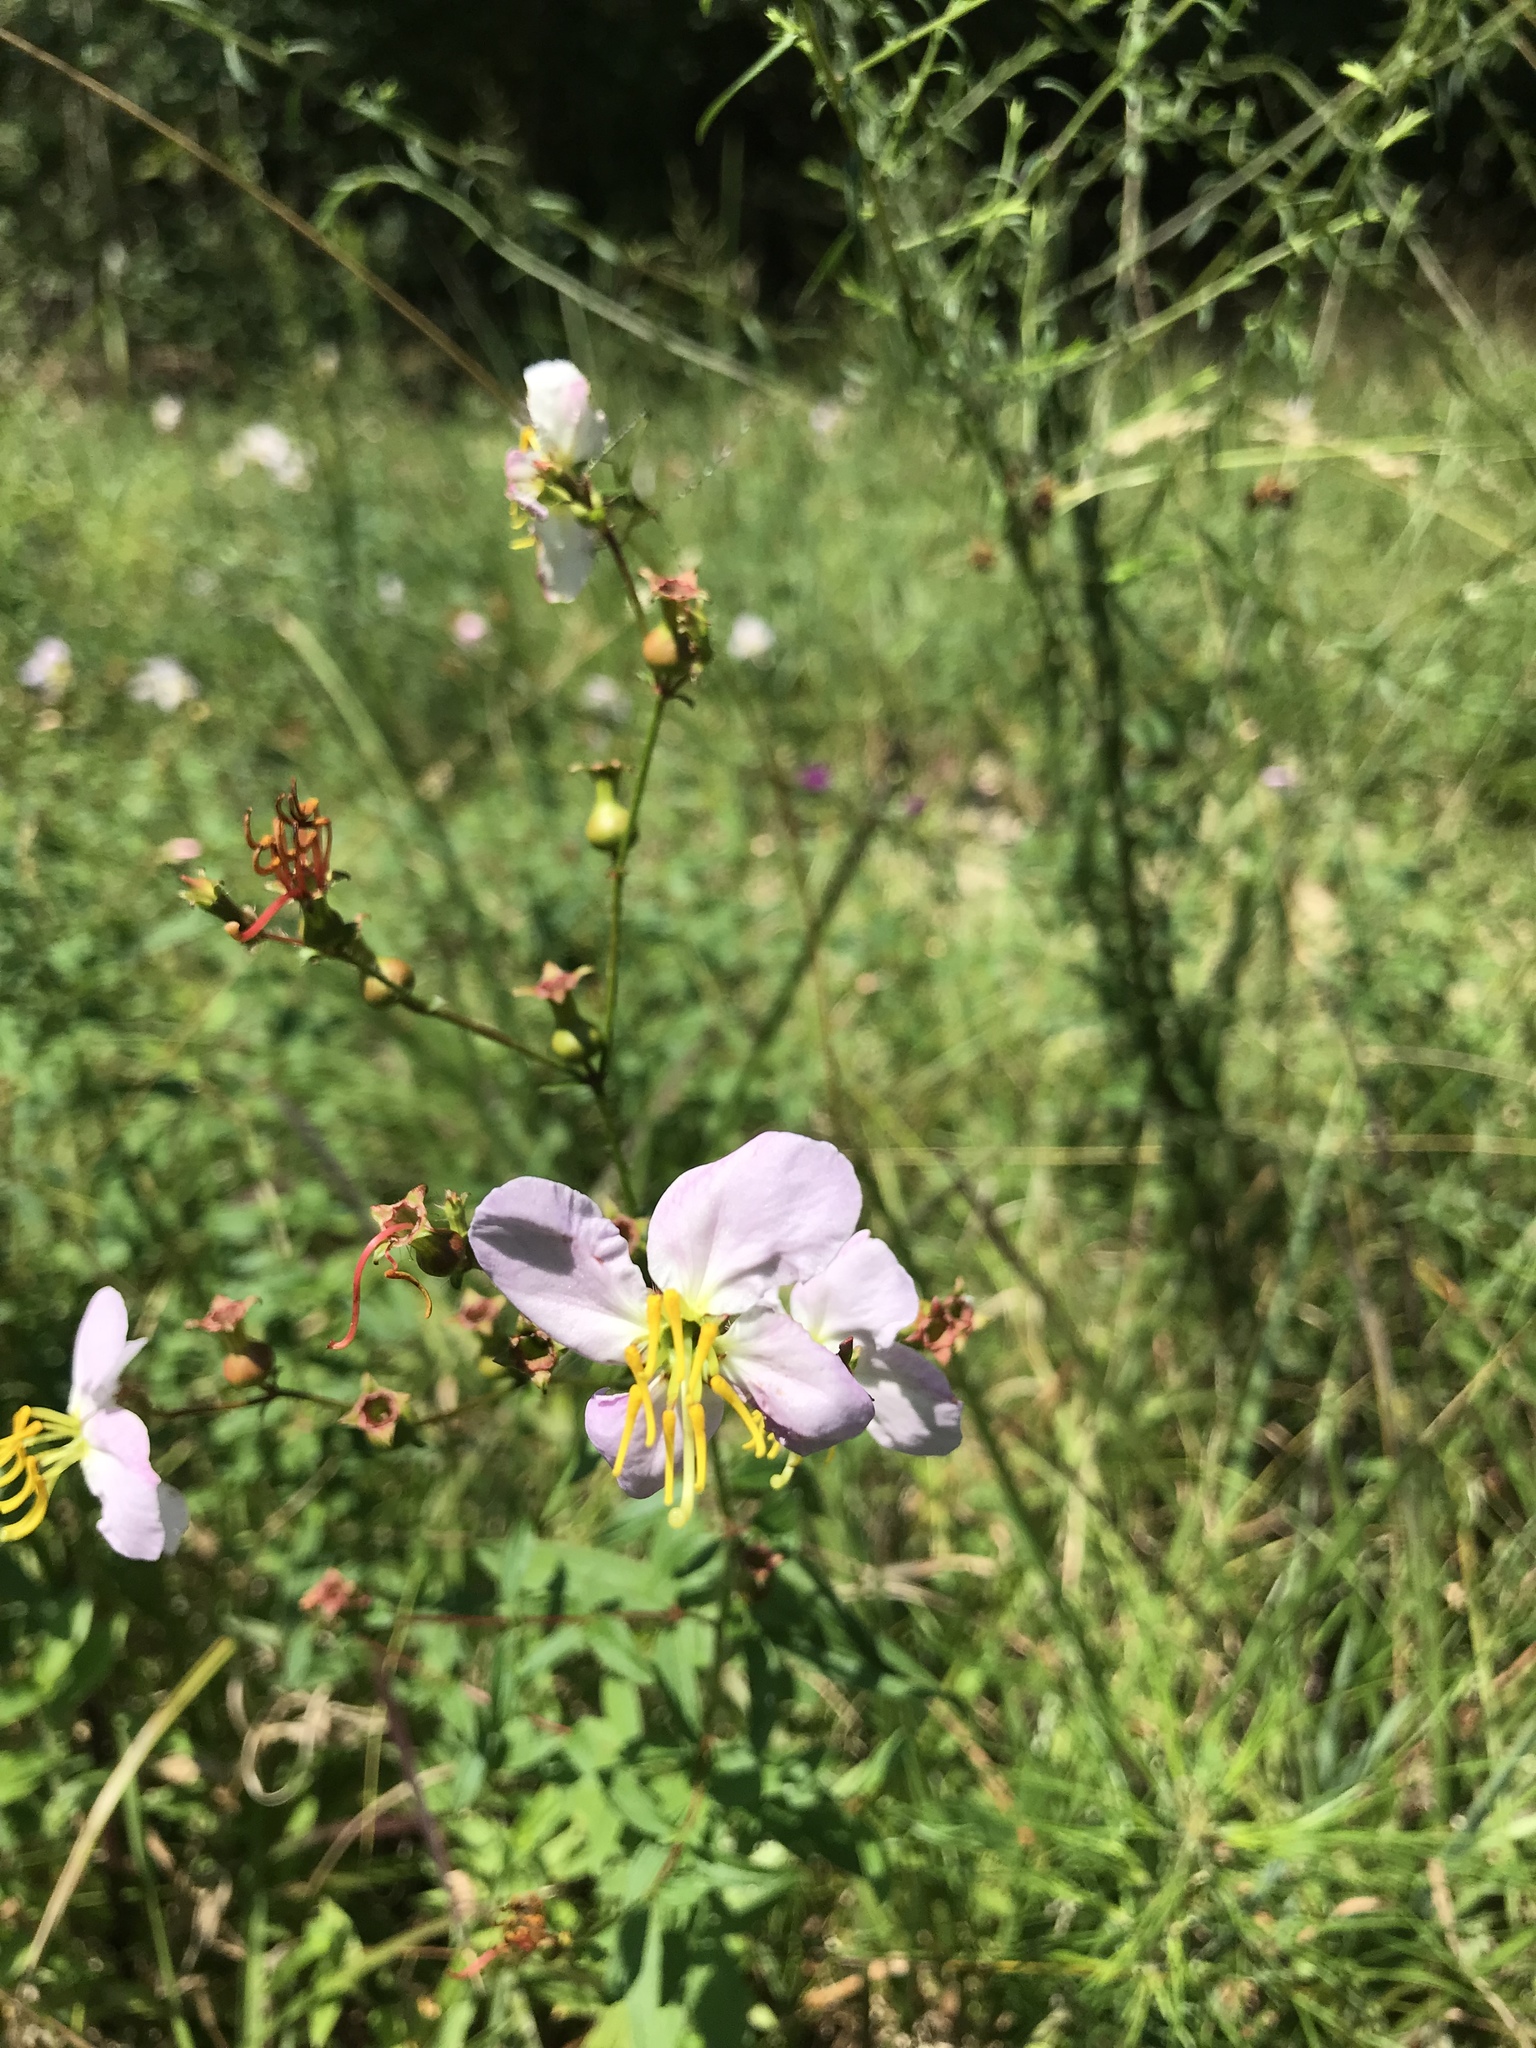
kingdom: Plantae
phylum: Tracheophyta
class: Magnoliopsida
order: Myrtales
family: Melastomataceae
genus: Rhexia
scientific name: Rhexia mariana
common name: Dull meadow-pitcher
